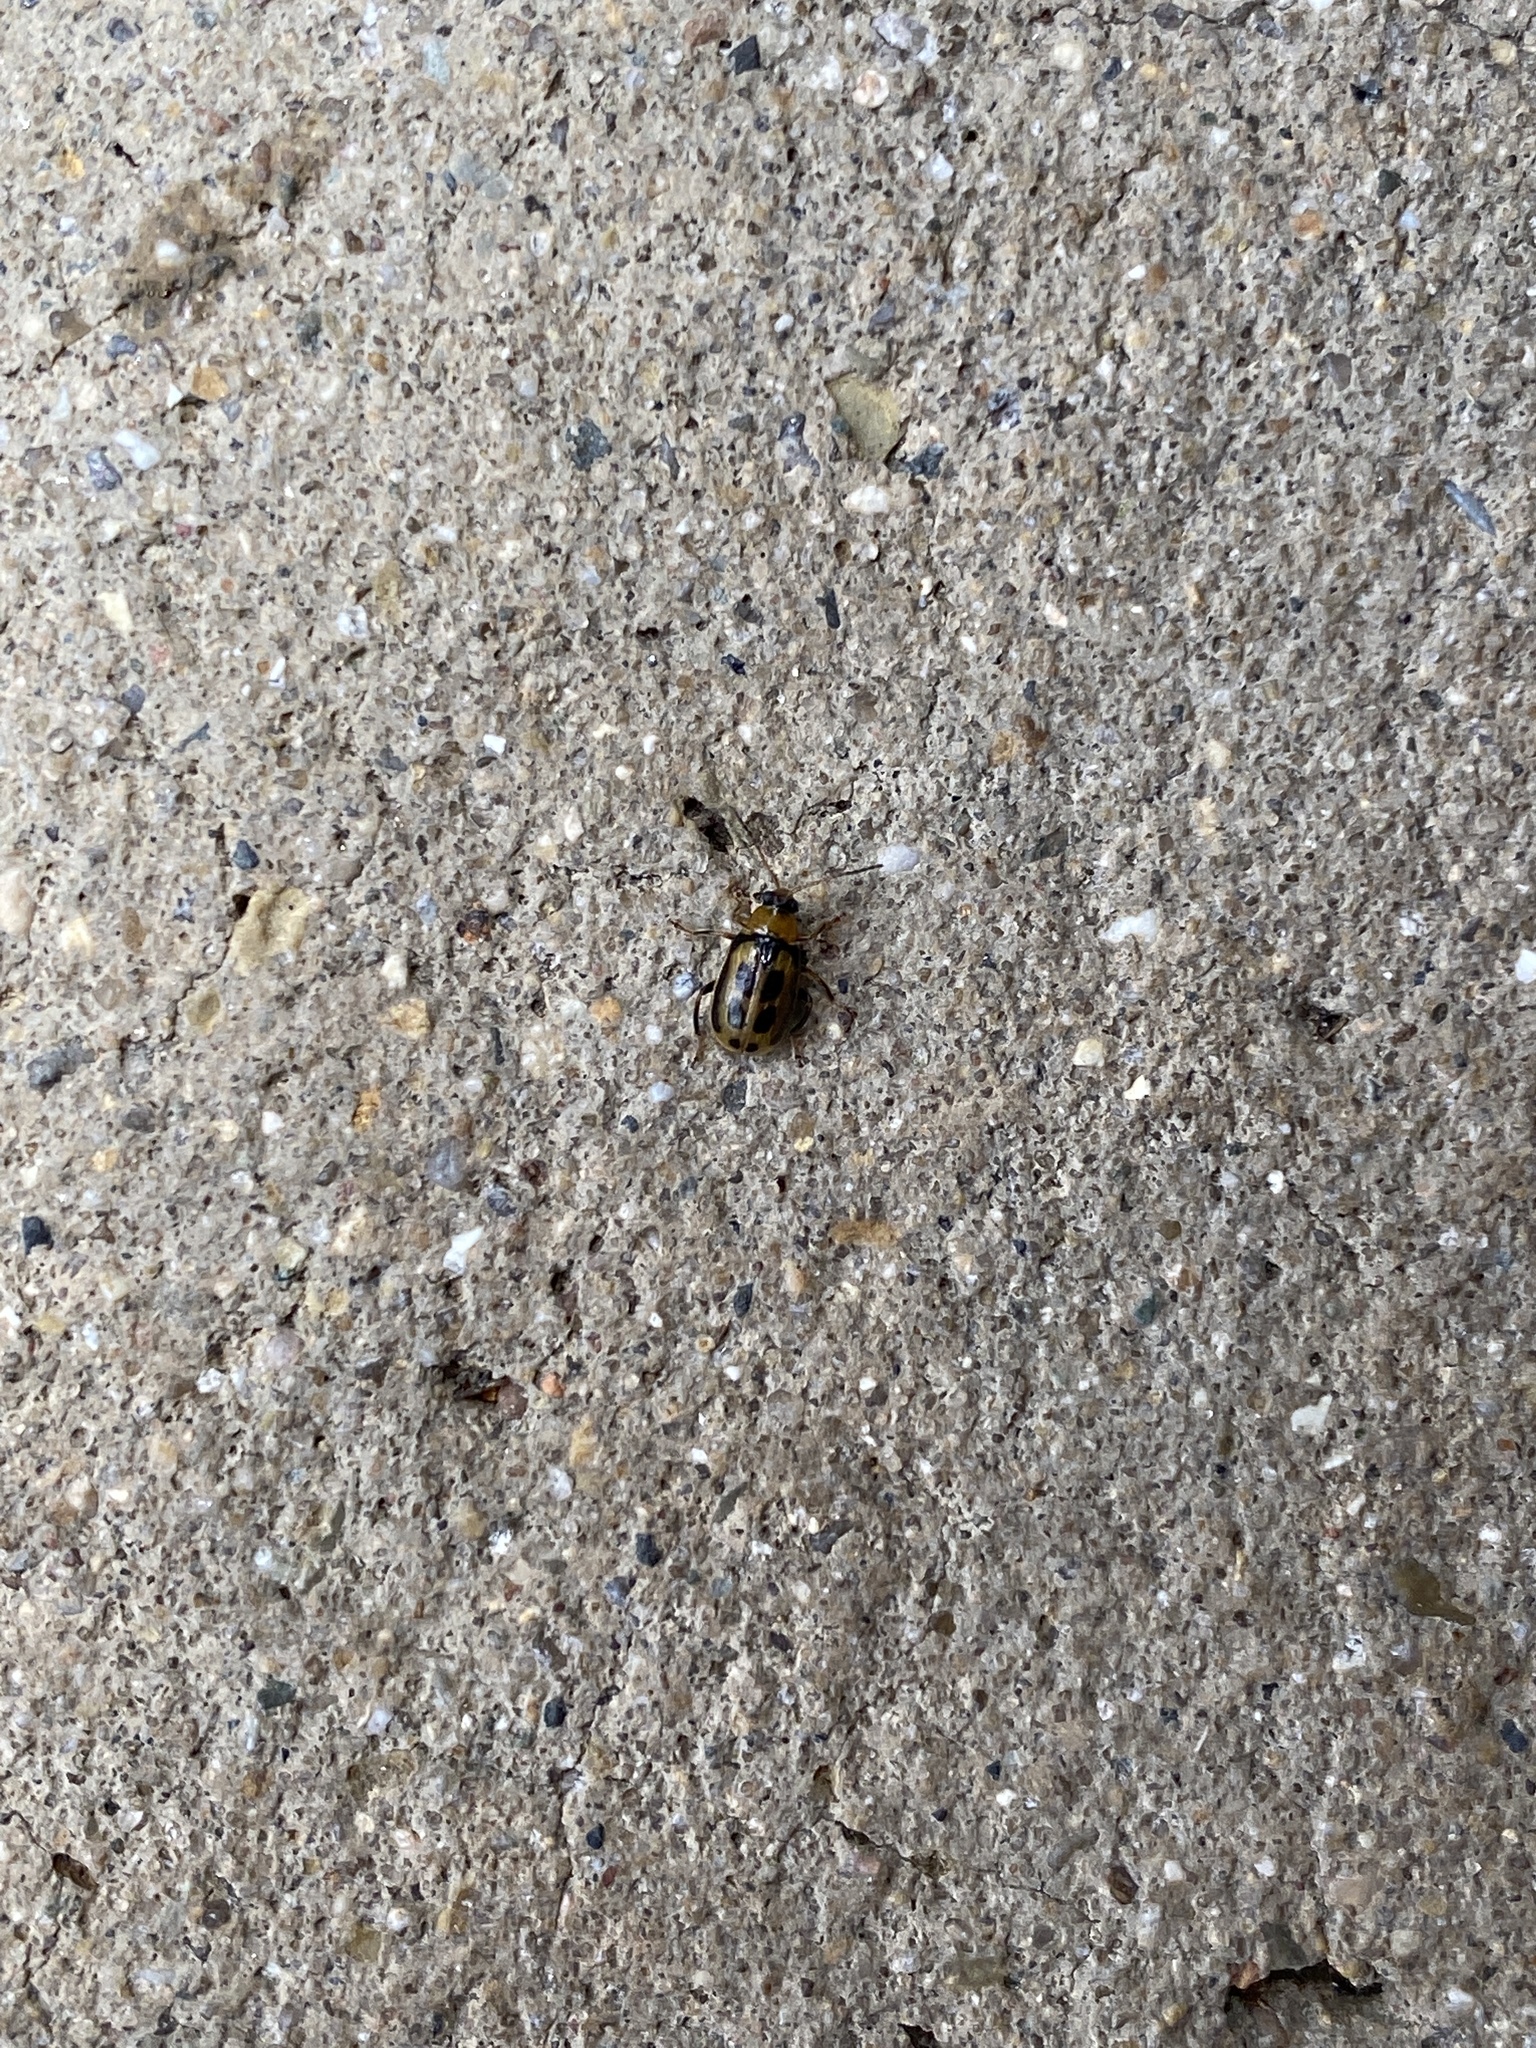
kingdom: Animalia
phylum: Arthropoda
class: Insecta
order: Coleoptera
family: Chrysomelidae
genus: Cerotoma
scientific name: Cerotoma trifurcata
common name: Bean leaf beetle
